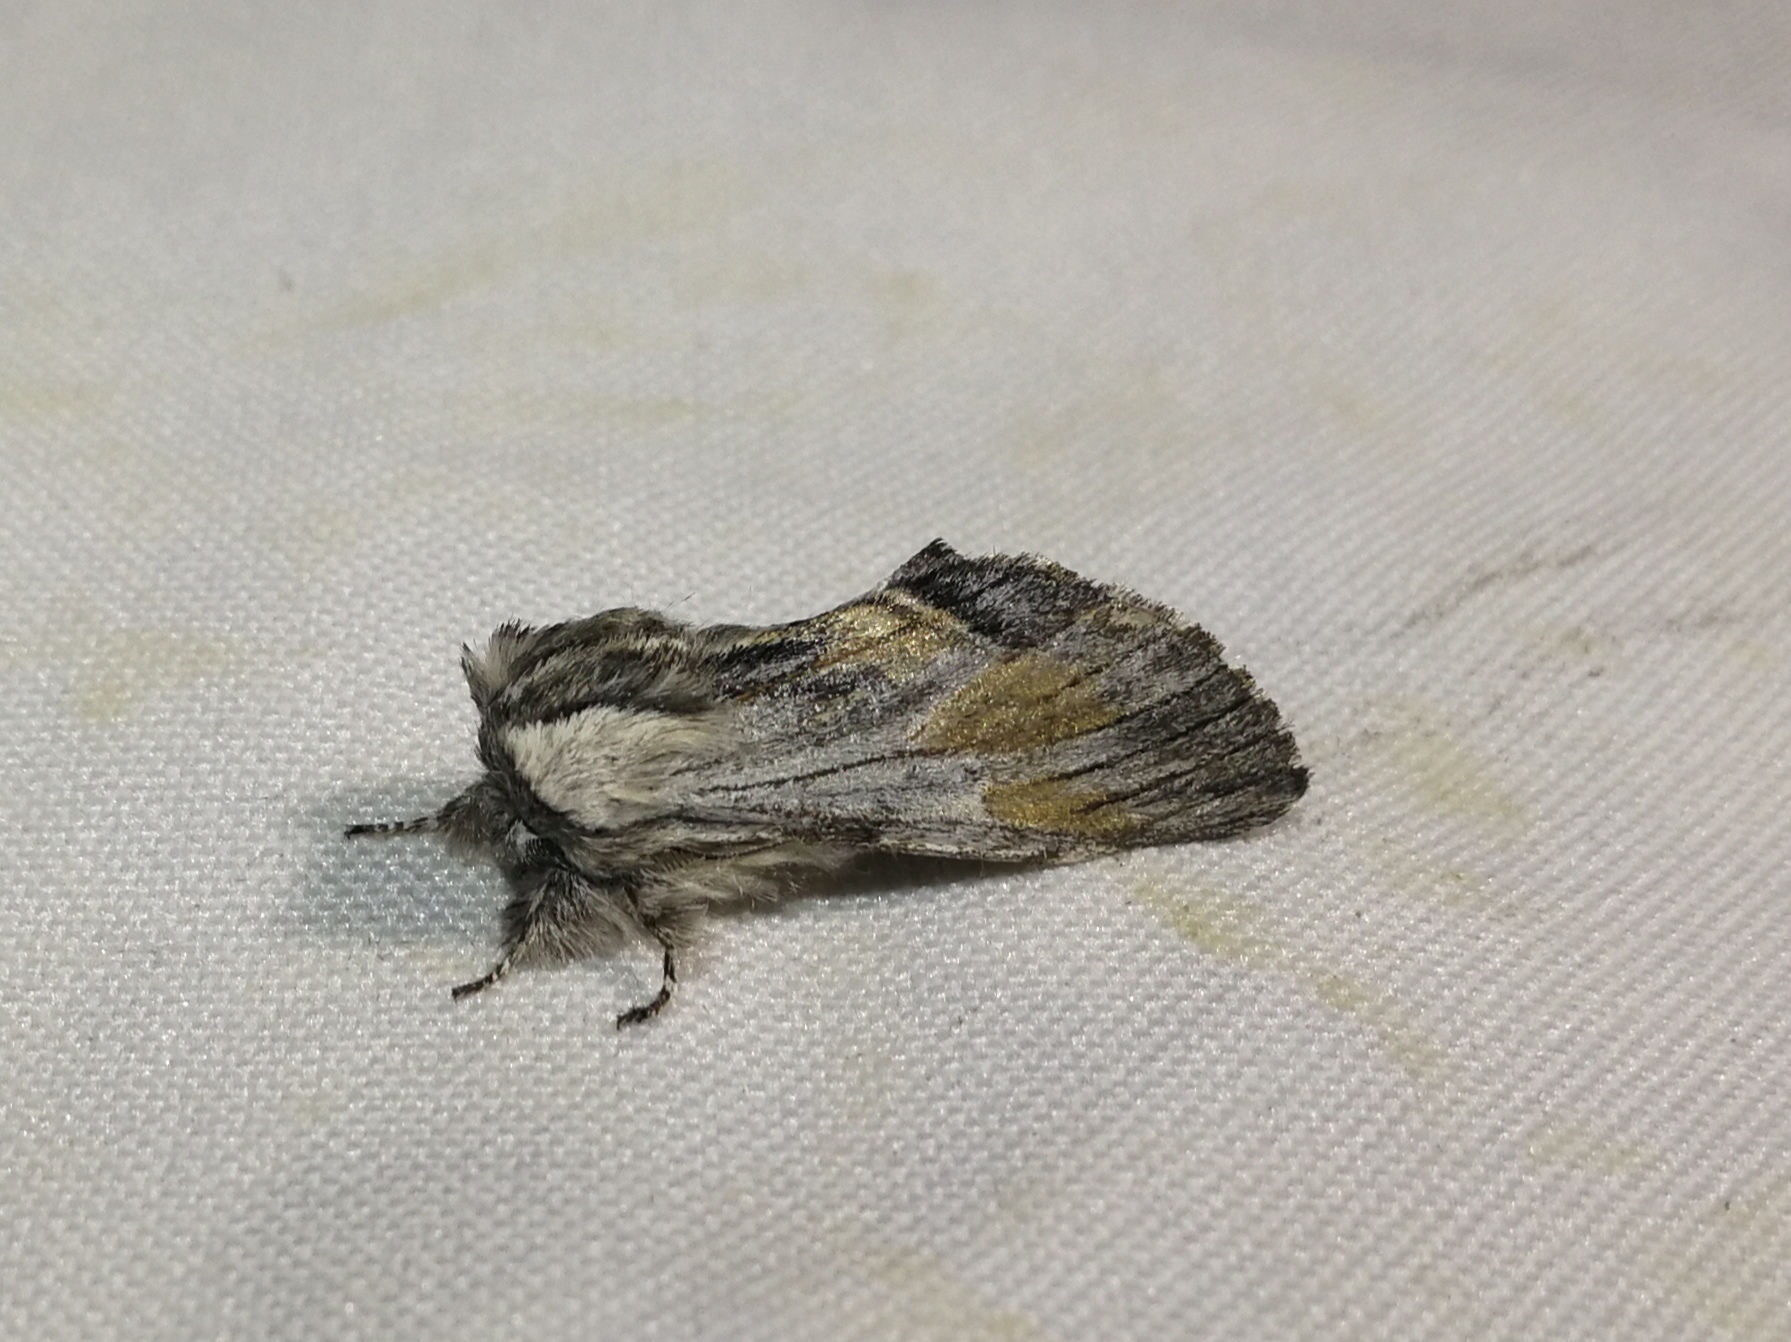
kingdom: Animalia
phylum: Arthropoda
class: Insecta
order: Lepidoptera
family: Notodontidae
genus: Harpyia
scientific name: Harpyia milhauseri
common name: Tawny prominent
